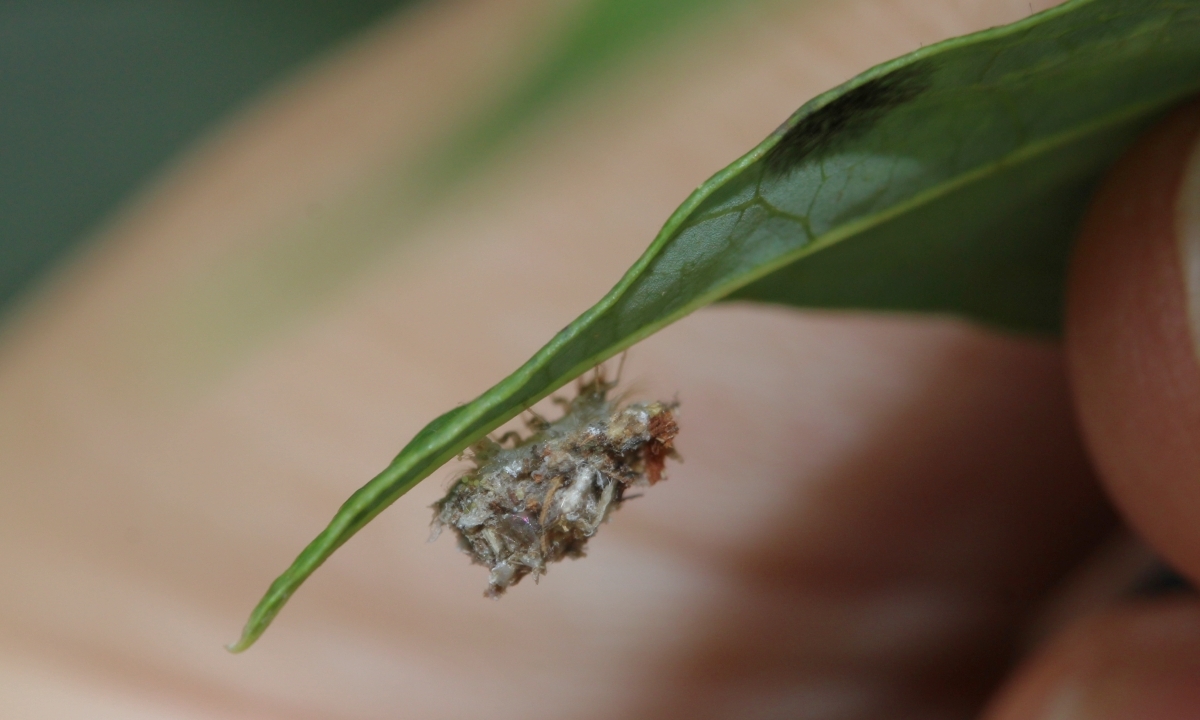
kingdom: Animalia
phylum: Arthropoda
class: Insecta
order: Neuroptera
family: Chrysopidae
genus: Leucochrysa
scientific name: Leucochrysa
